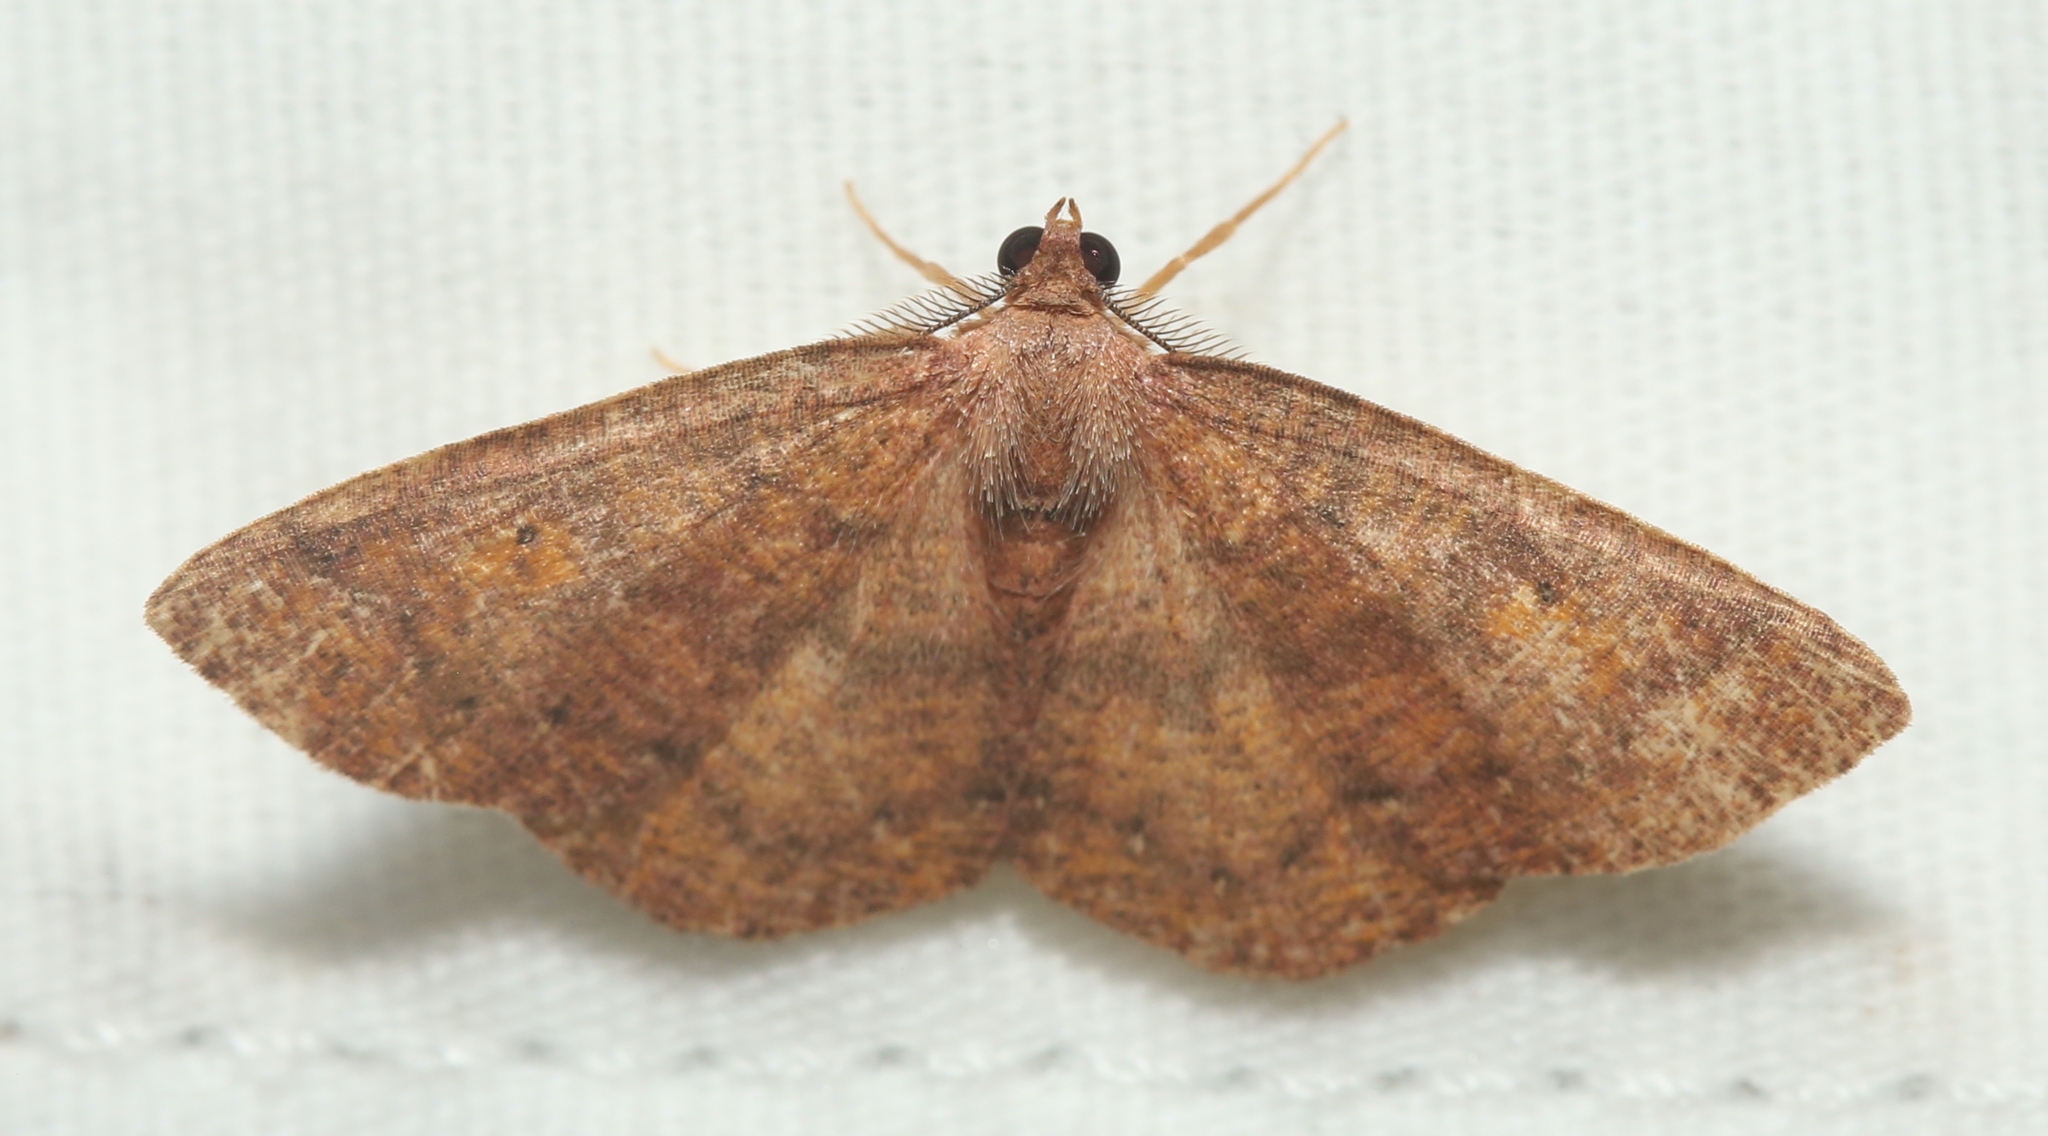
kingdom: Animalia
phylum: Arthropoda
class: Insecta
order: Lepidoptera
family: Geometridae
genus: Ilexia
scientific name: Ilexia intractata
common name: Black-dotted ruddy moth
